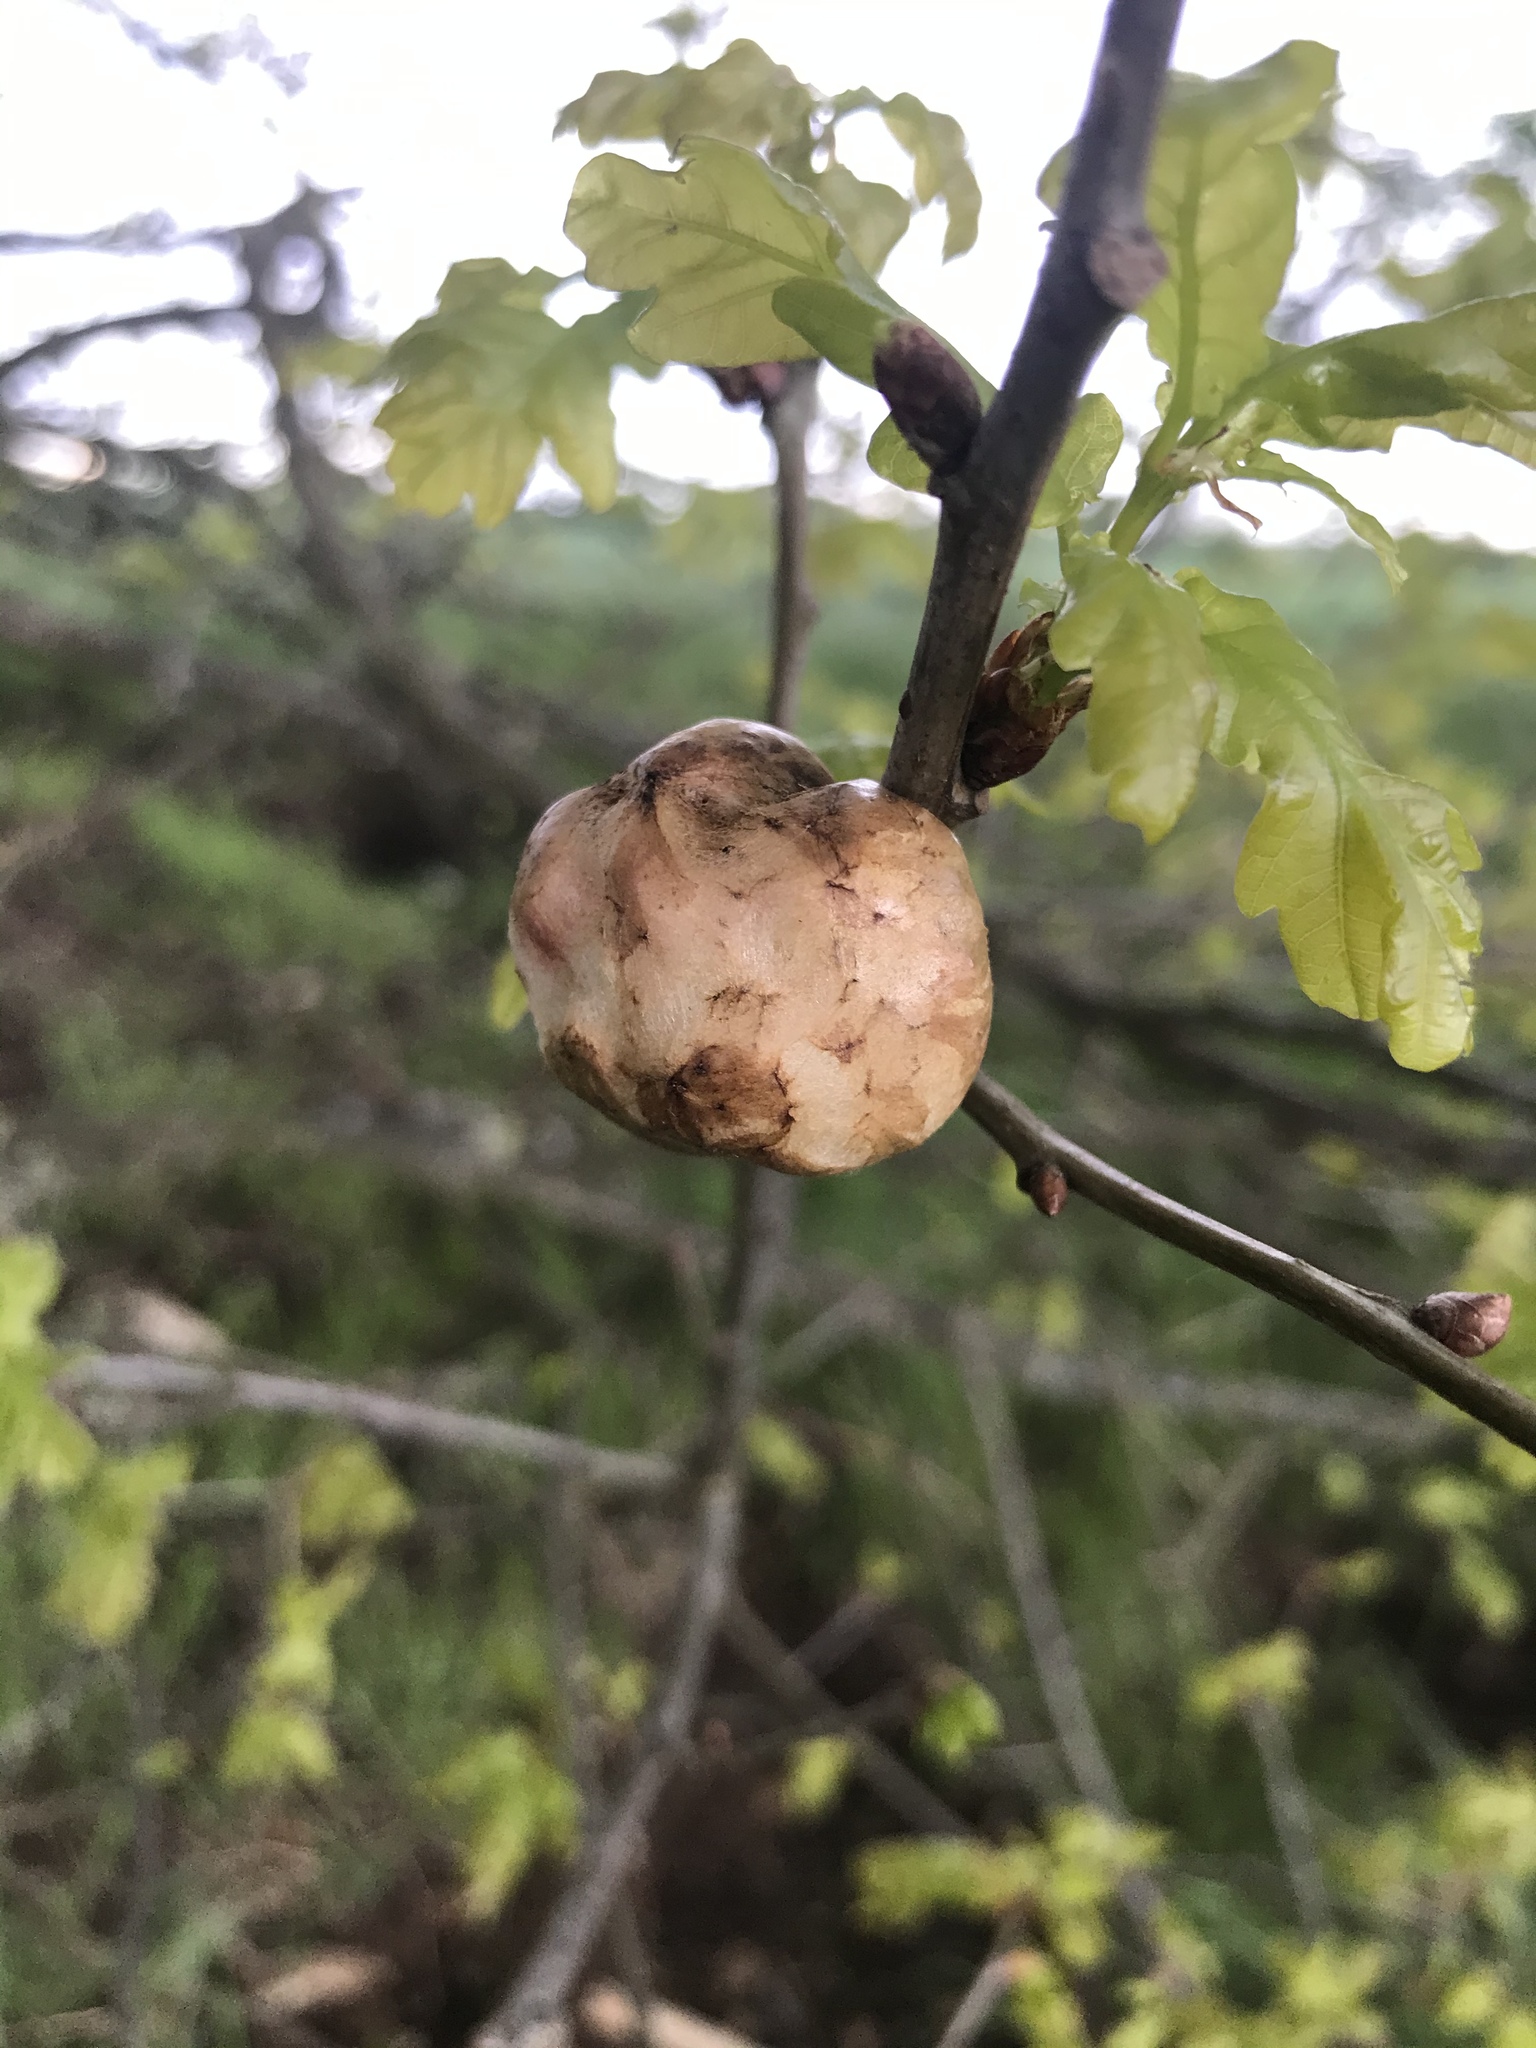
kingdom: Animalia
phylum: Arthropoda
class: Insecta
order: Hymenoptera
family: Cynipidae
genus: Biorhiza
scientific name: Biorhiza pallida
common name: Oak apple
